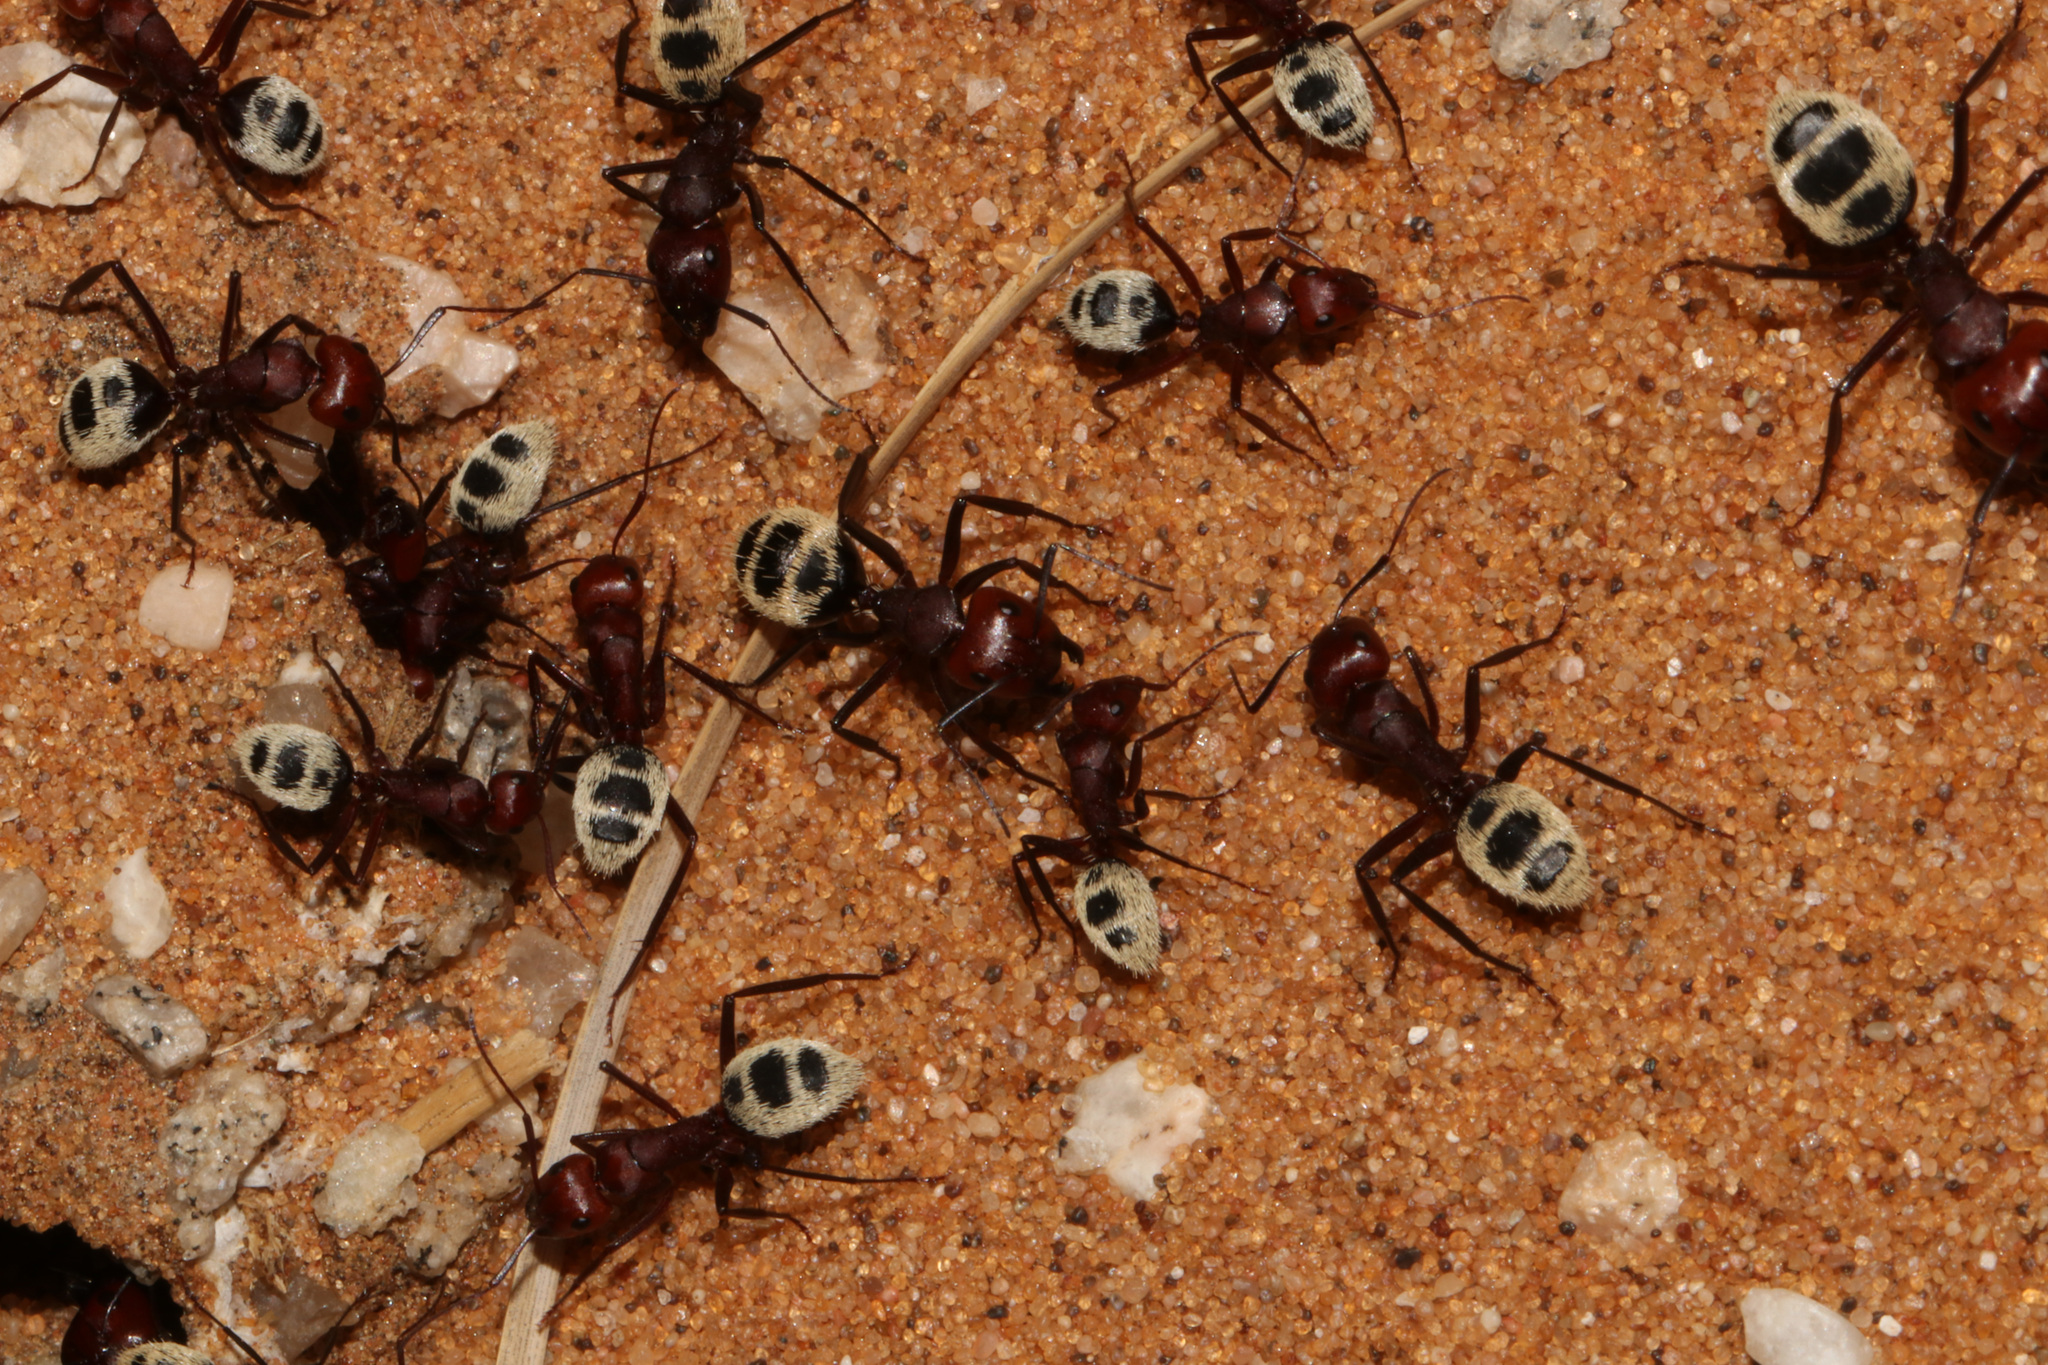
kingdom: Animalia
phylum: Arthropoda
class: Insecta
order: Hymenoptera
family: Formicidae
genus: Camponotus
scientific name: Camponotus detritus
